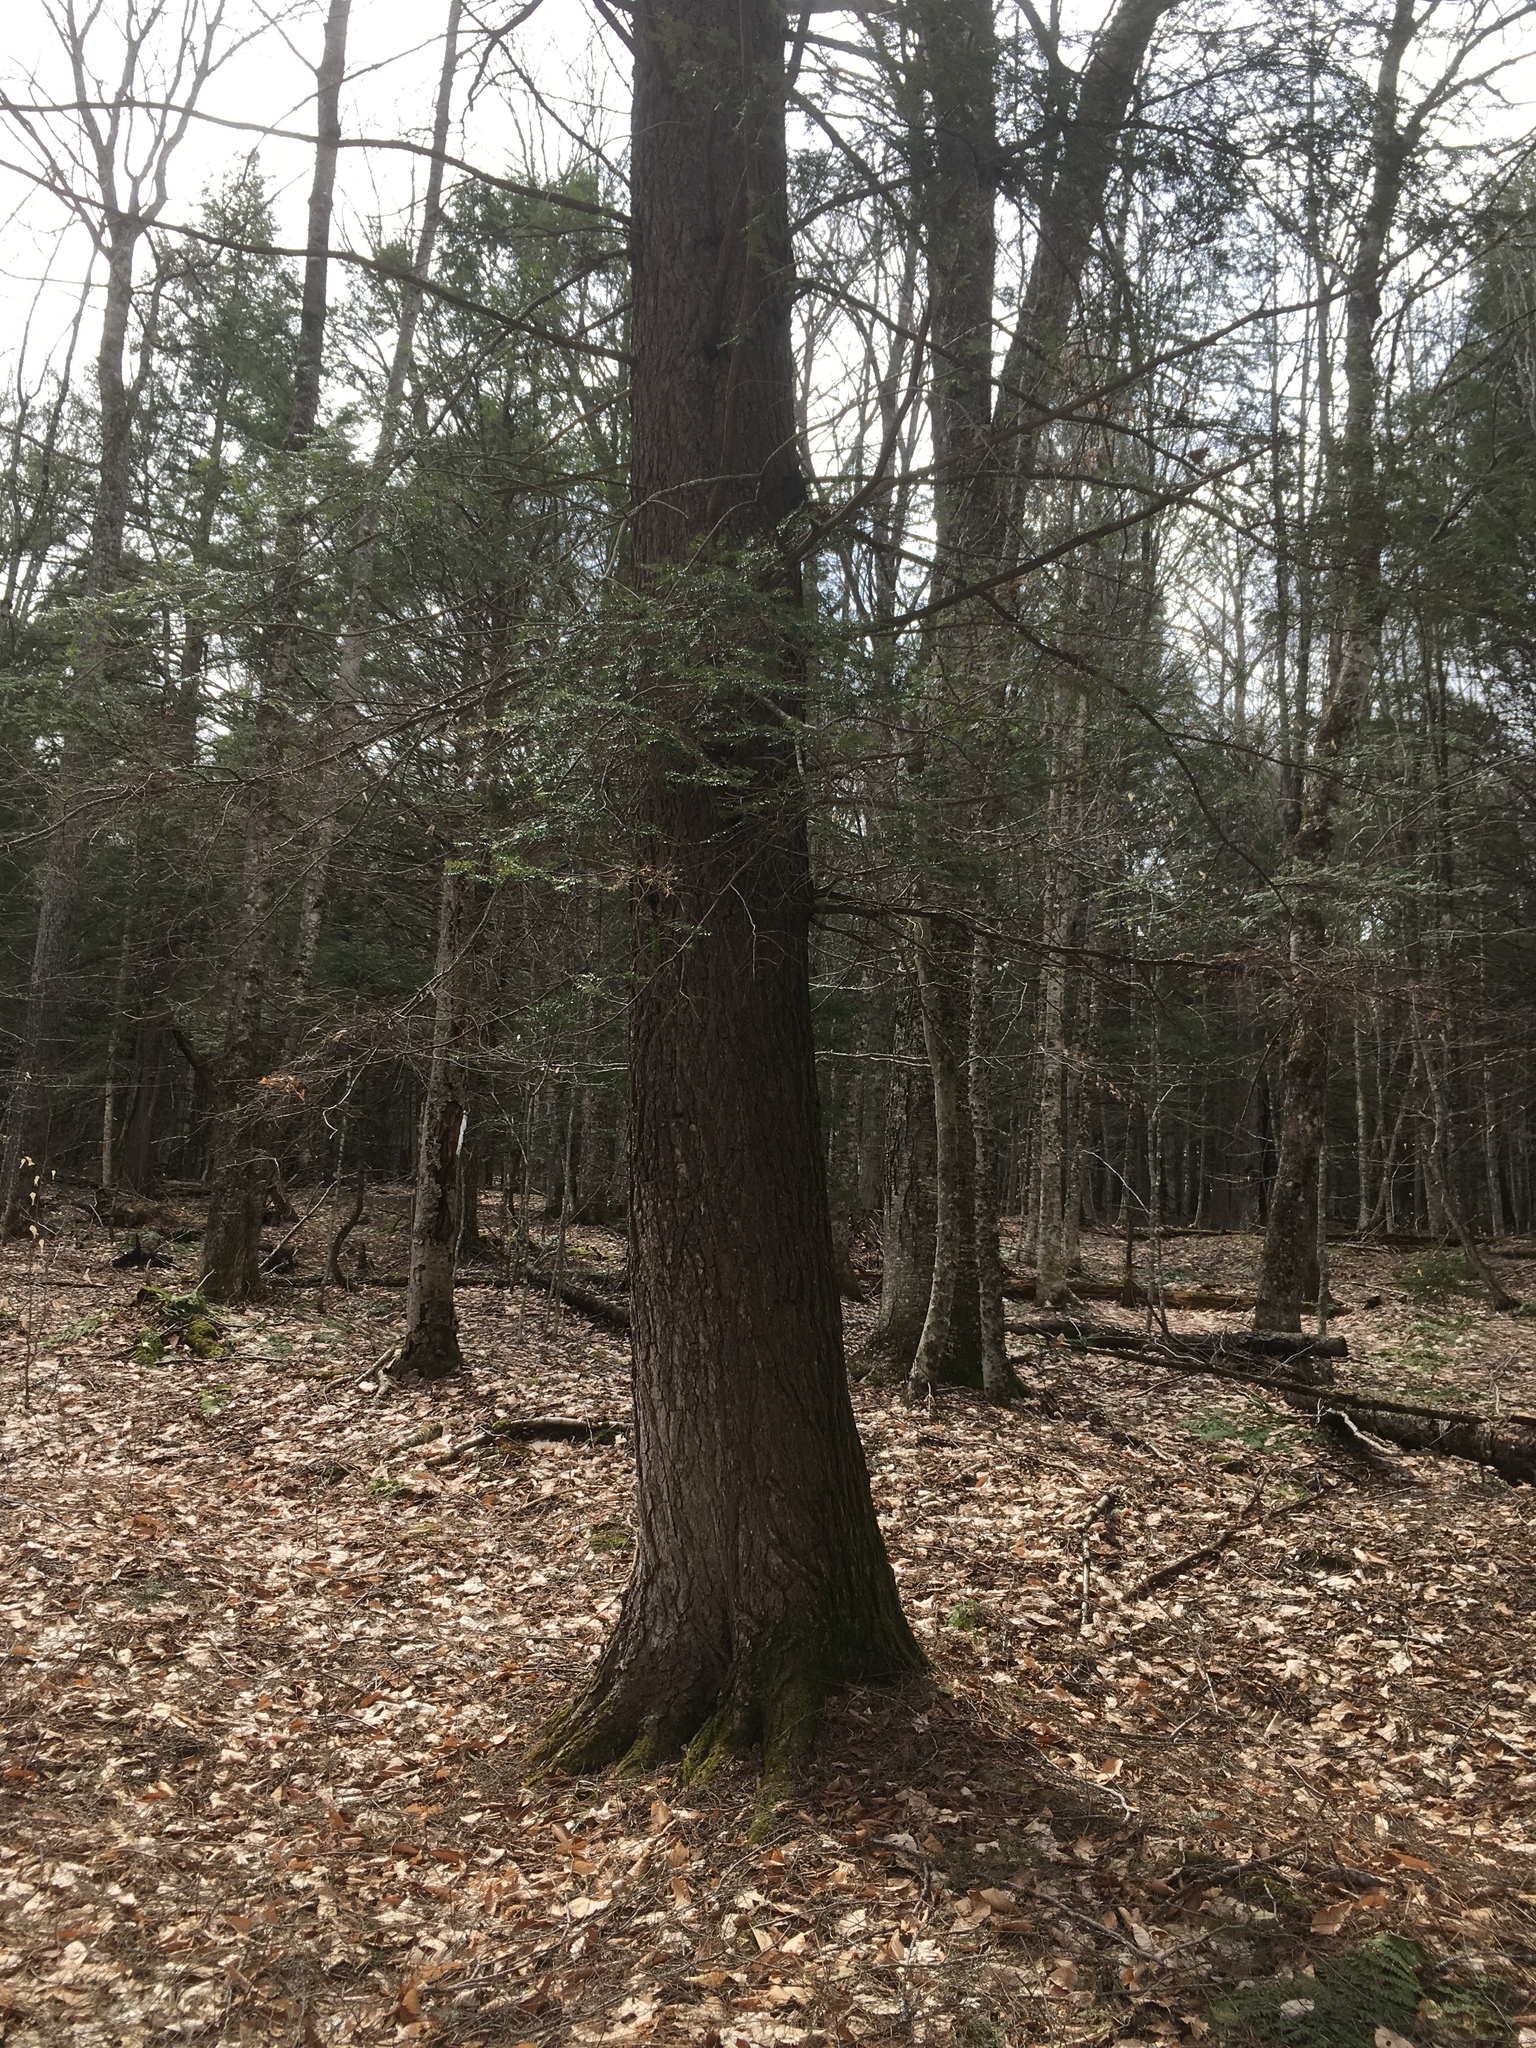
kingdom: Plantae
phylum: Tracheophyta
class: Pinopsida
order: Pinales
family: Pinaceae
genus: Tsuga
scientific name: Tsuga canadensis
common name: Eastern hemlock
